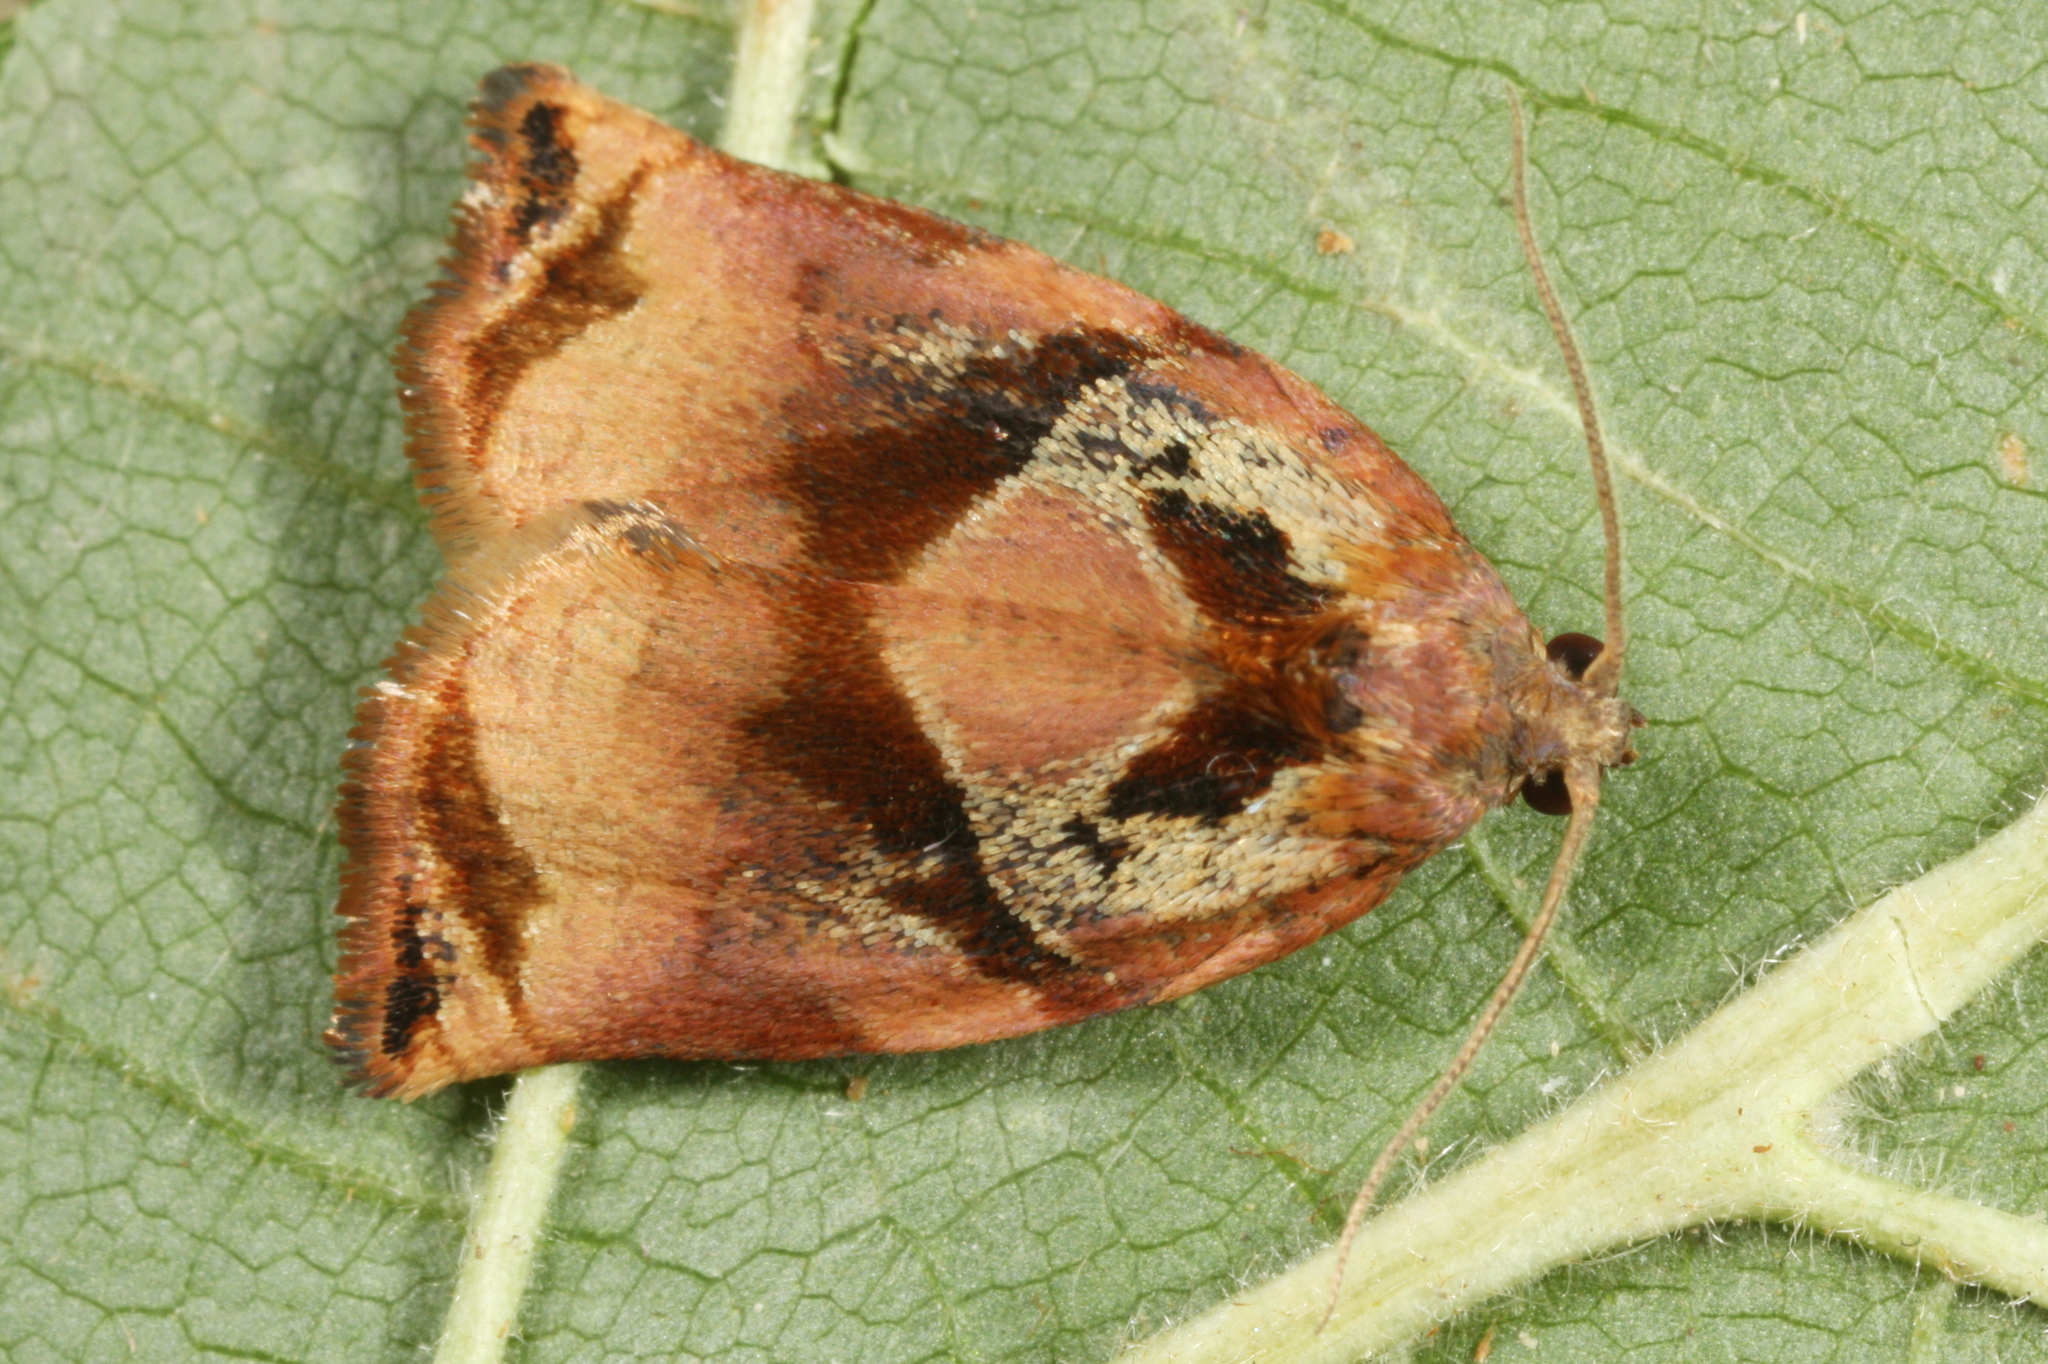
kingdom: Animalia
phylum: Arthropoda
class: Insecta
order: Lepidoptera
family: Tortricidae
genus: Archips
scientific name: Archips podana
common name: Large fruit-tree tortrix
